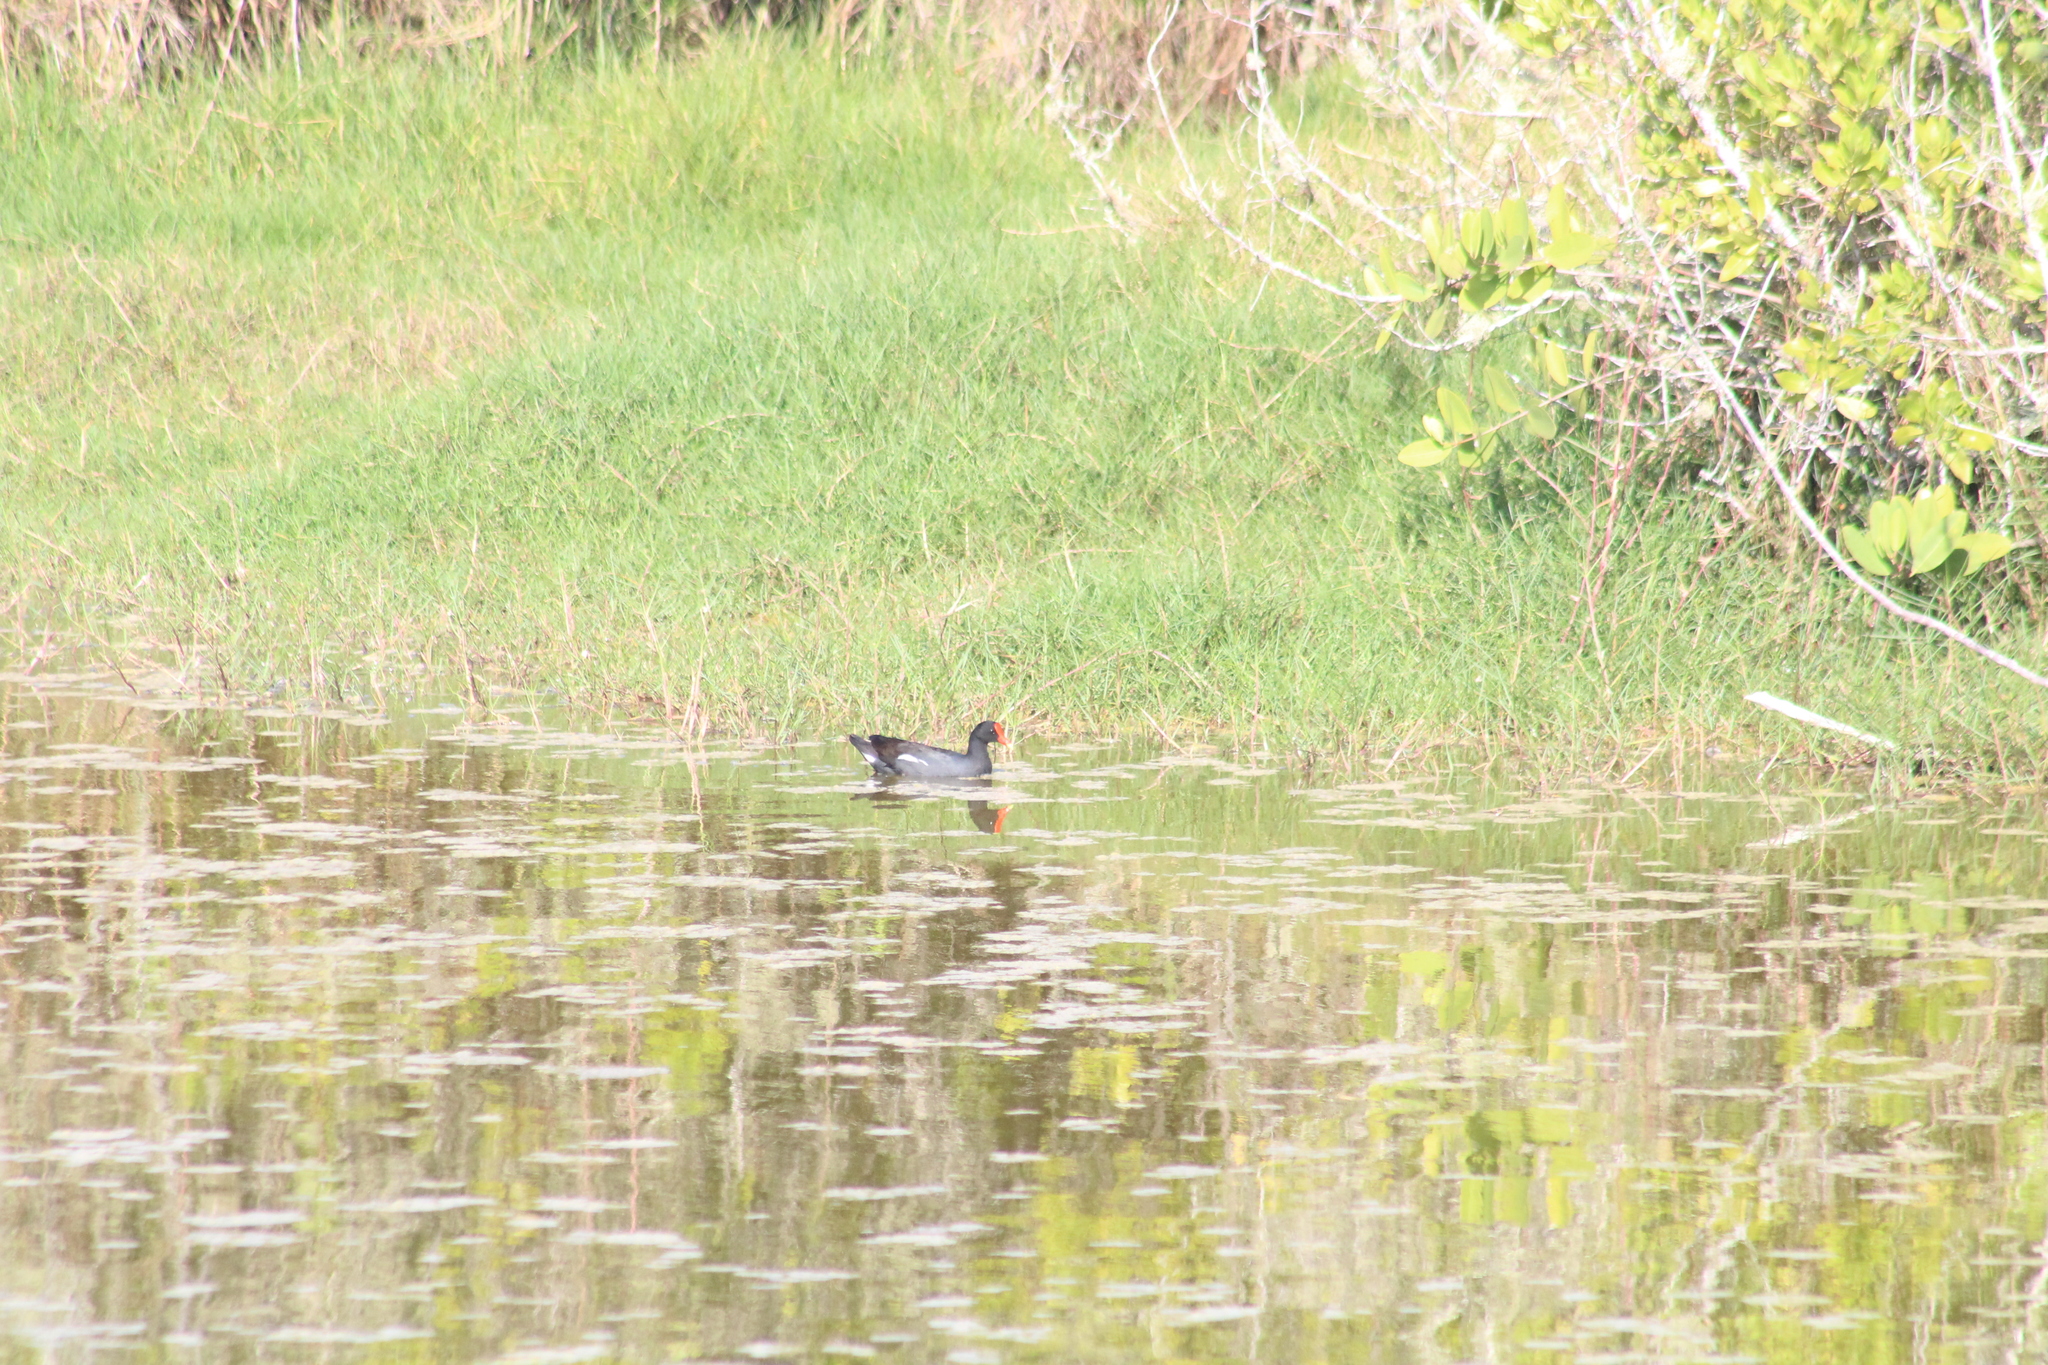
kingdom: Animalia
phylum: Chordata
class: Aves
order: Gruiformes
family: Rallidae
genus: Gallinula
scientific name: Gallinula chloropus
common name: Common moorhen
